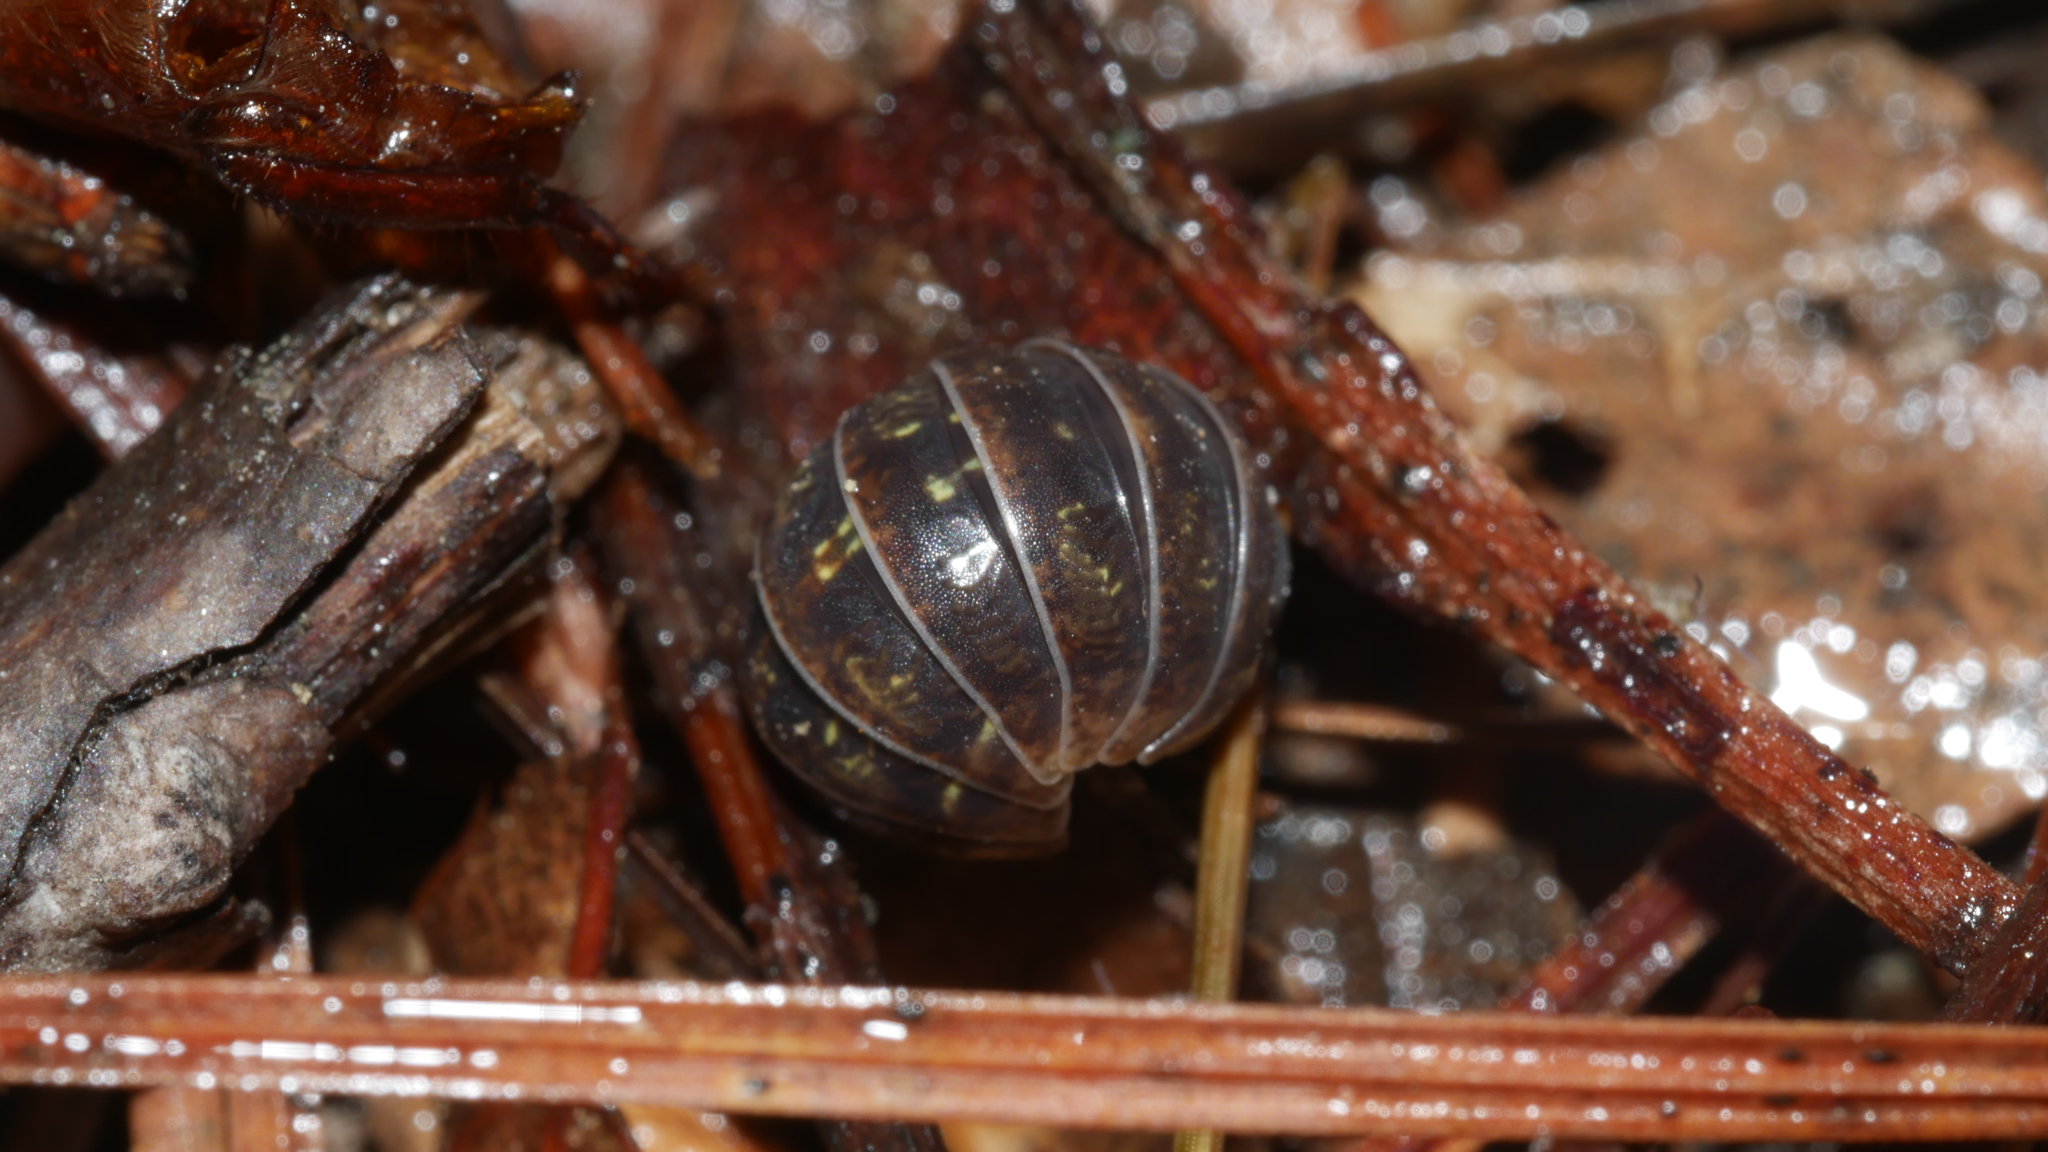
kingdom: Animalia
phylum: Arthropoda
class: Malacostraca
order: Isopoda
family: Armadillidiidae
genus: Armadillidium
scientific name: Armadillidium vulgare
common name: Common pill woodlouse
